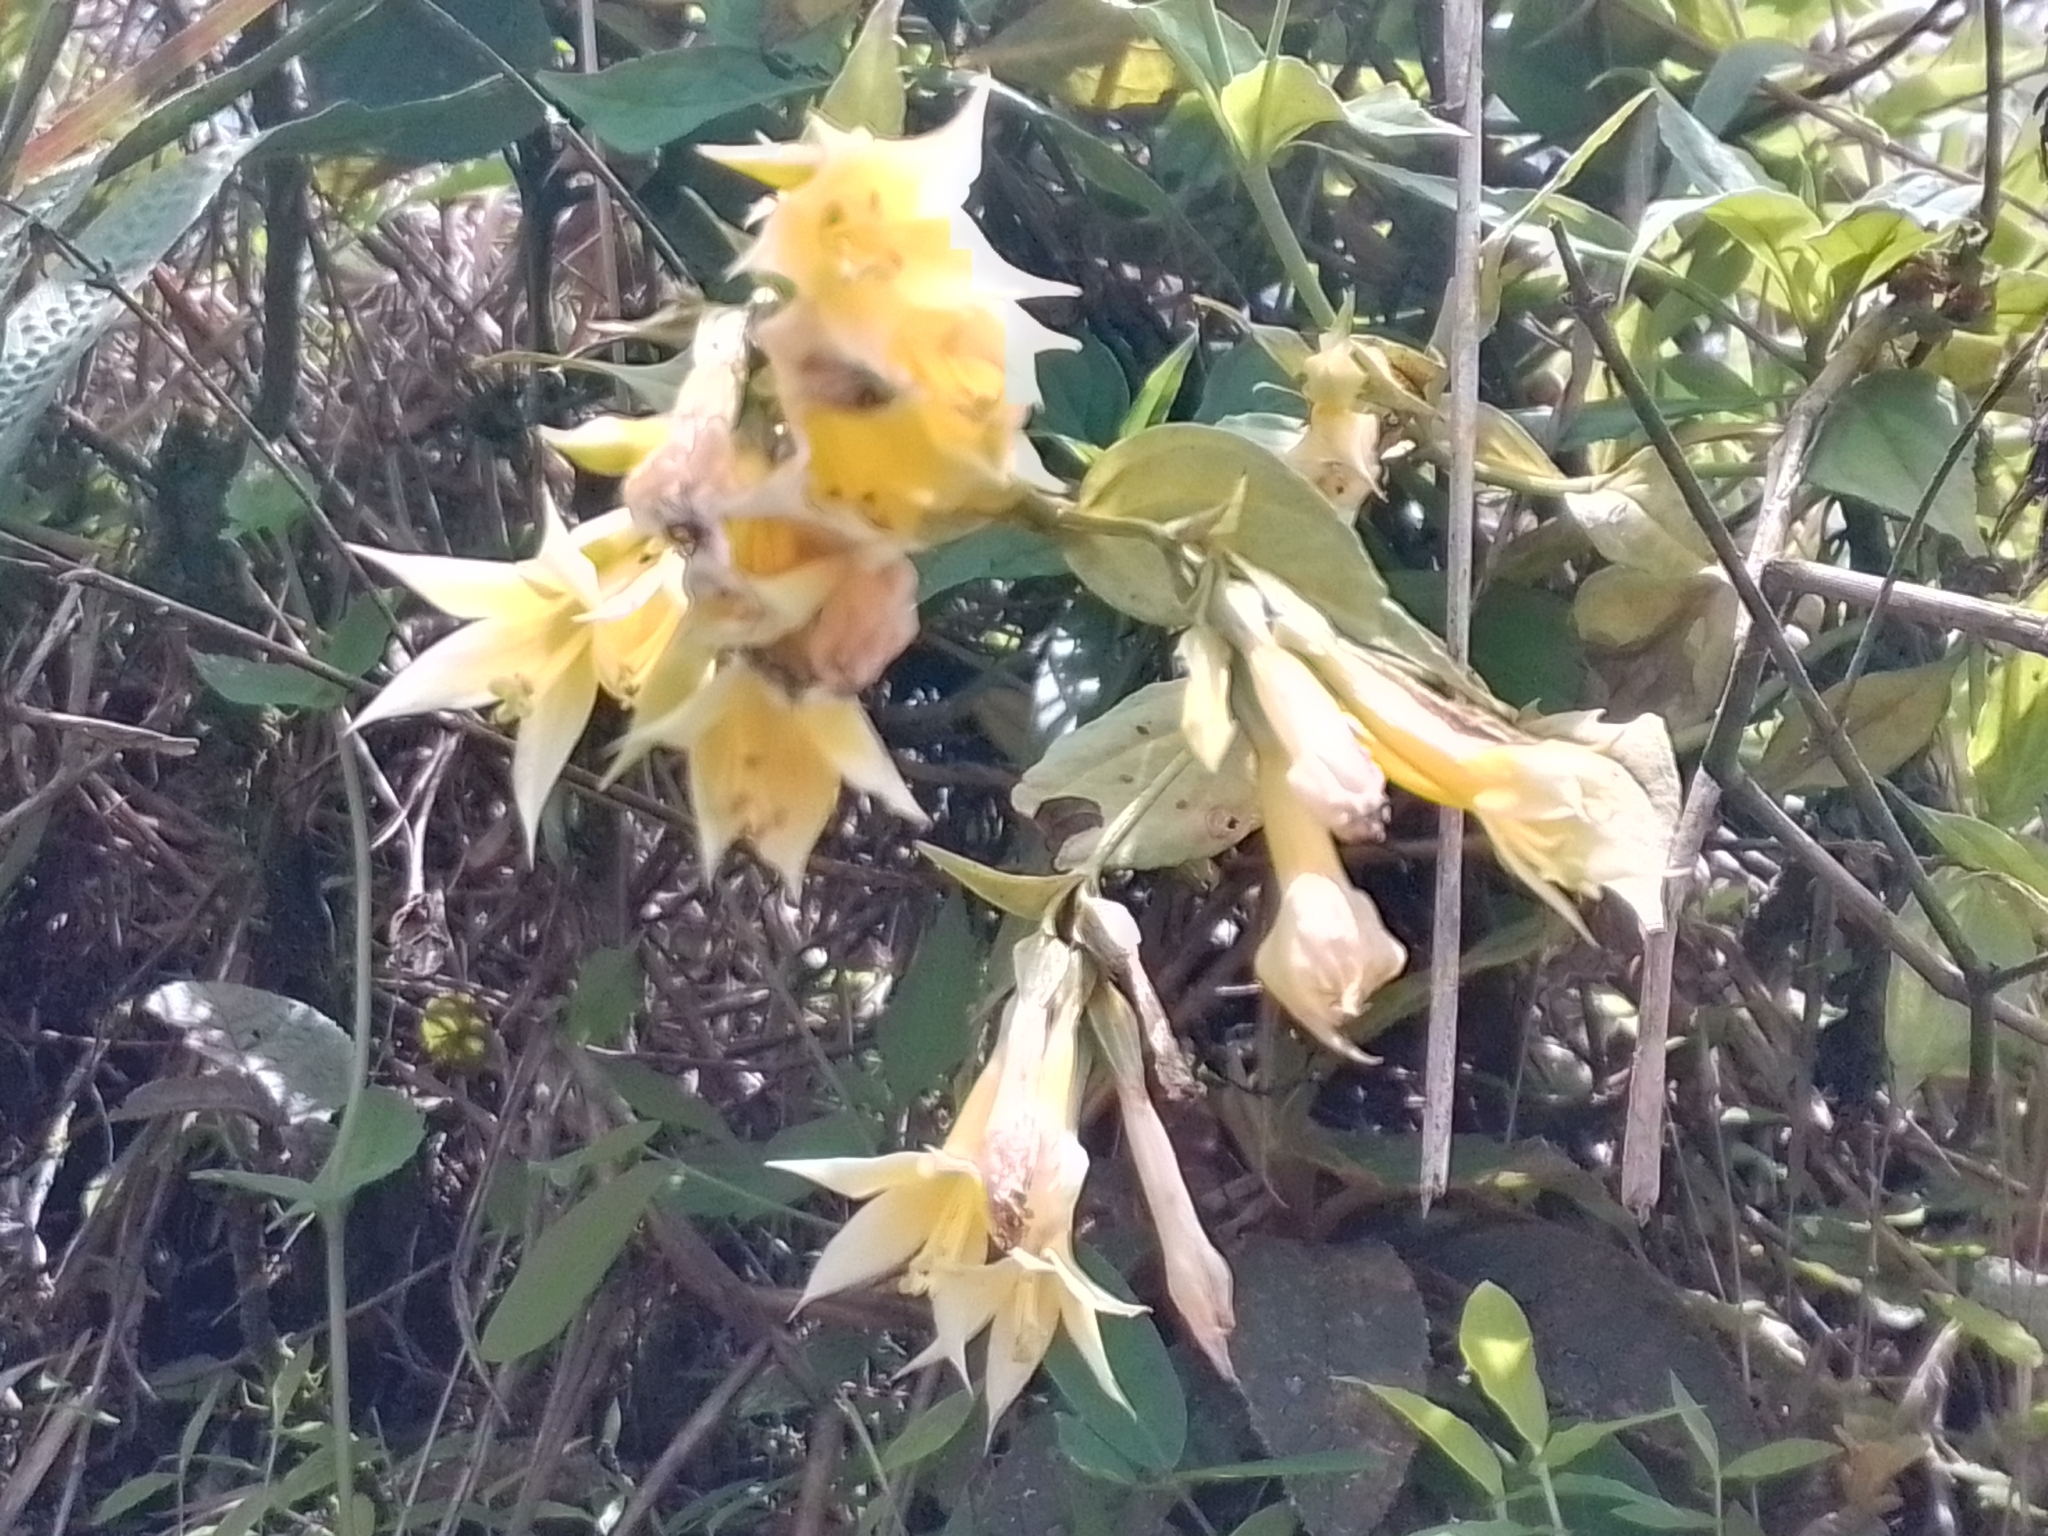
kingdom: Plantae
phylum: Tracheophyta
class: Magnoliopsida
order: Gentianales
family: Gentianaceae
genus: Lisianthus
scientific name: Lisianthus seemannii
